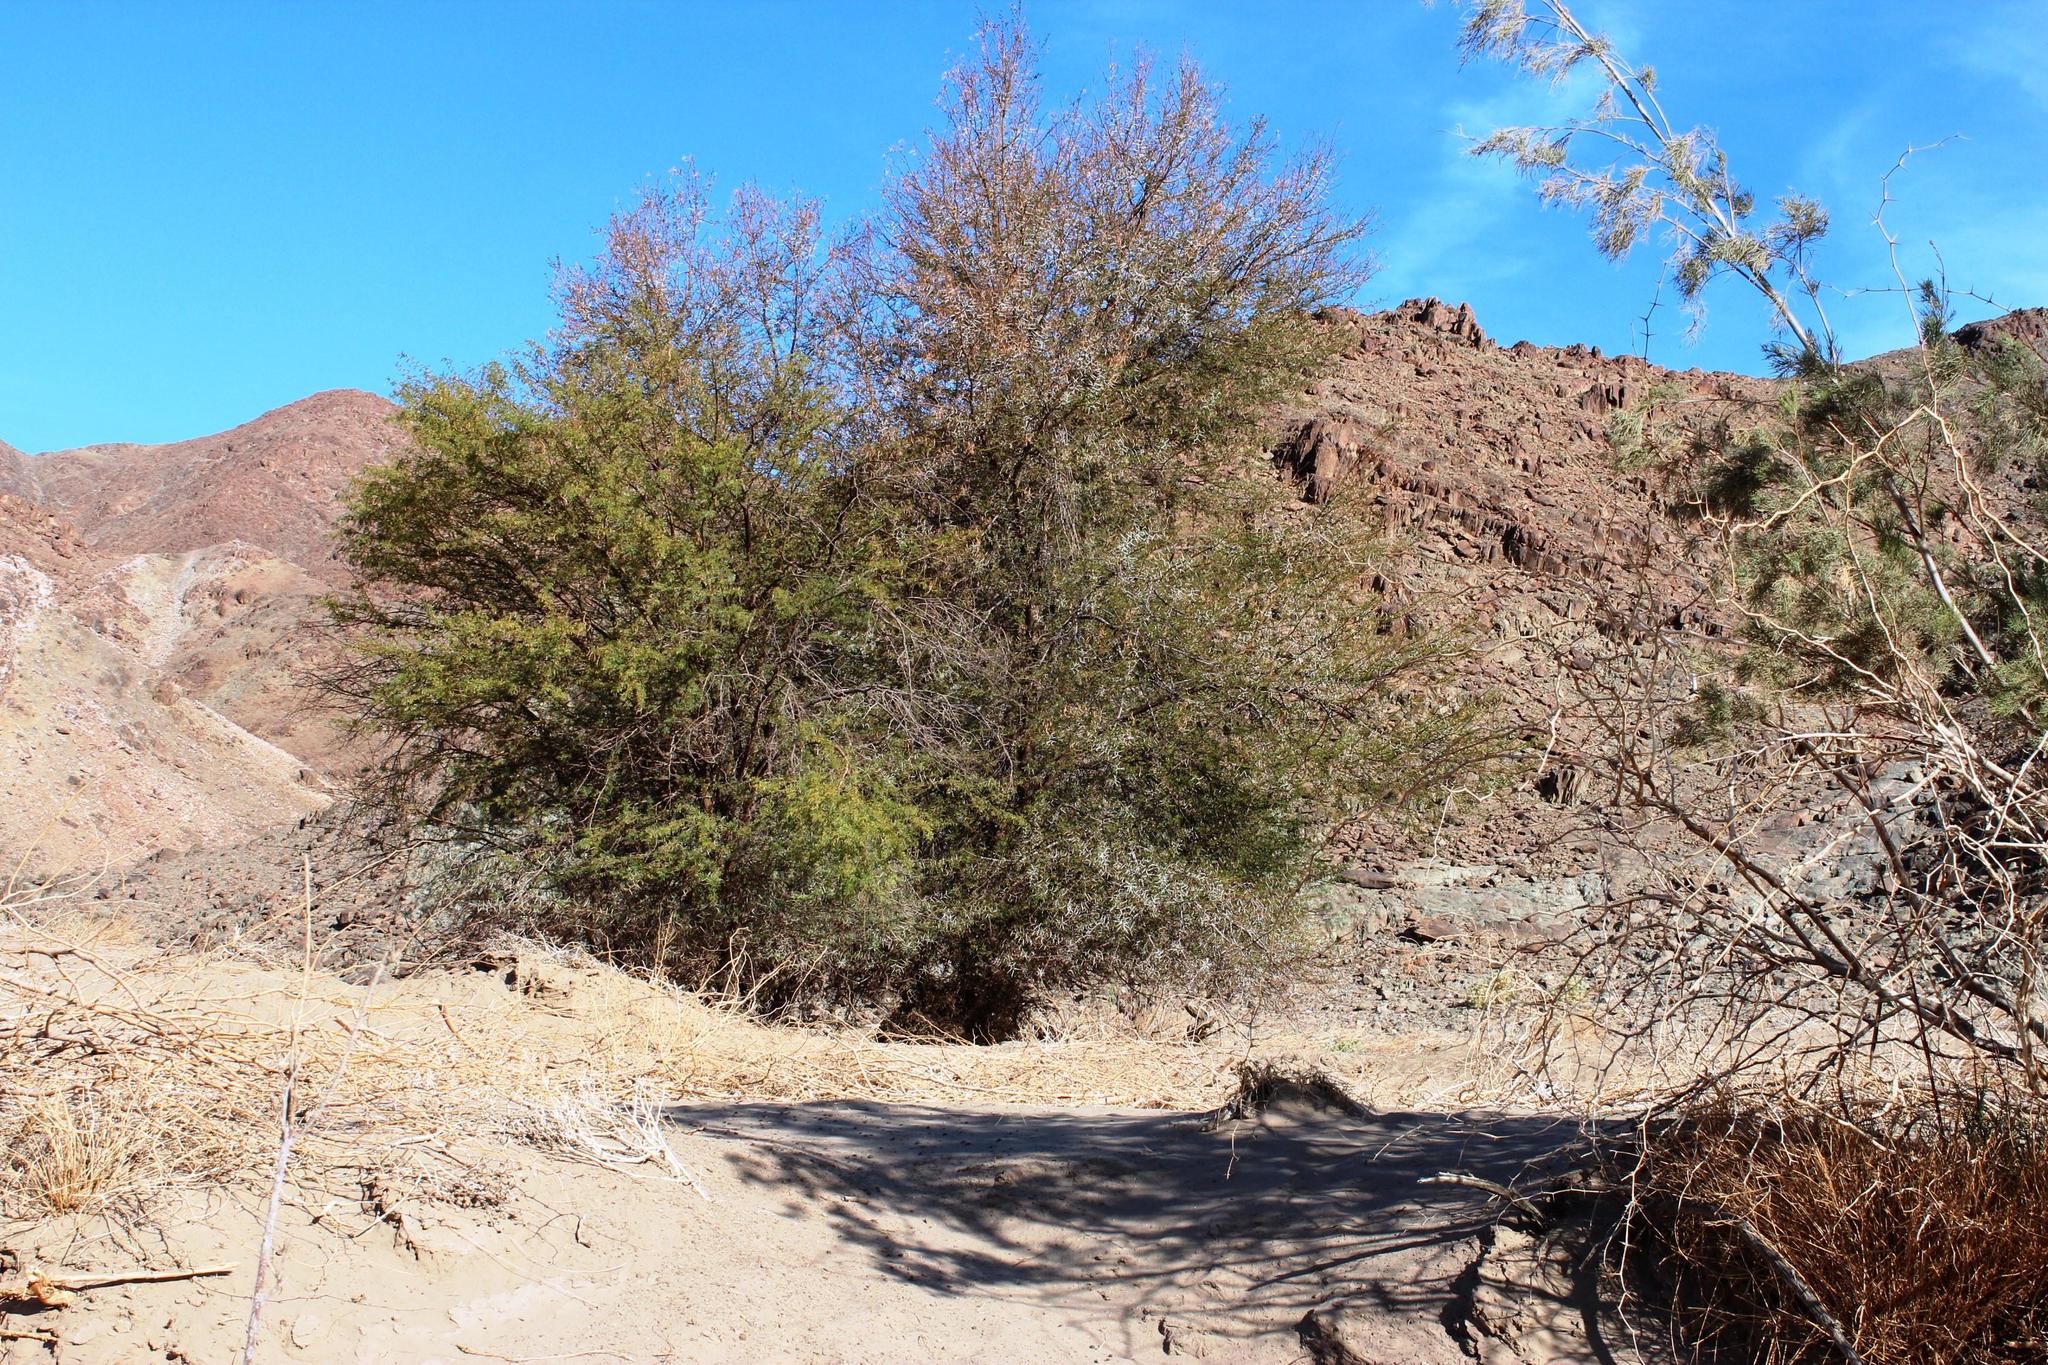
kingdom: Plantae
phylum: Tracheophyta
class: Magnoliopsida
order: Fabales
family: Fabaceae
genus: Vachellia
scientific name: Vachellia karroo
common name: Sweet thorn
